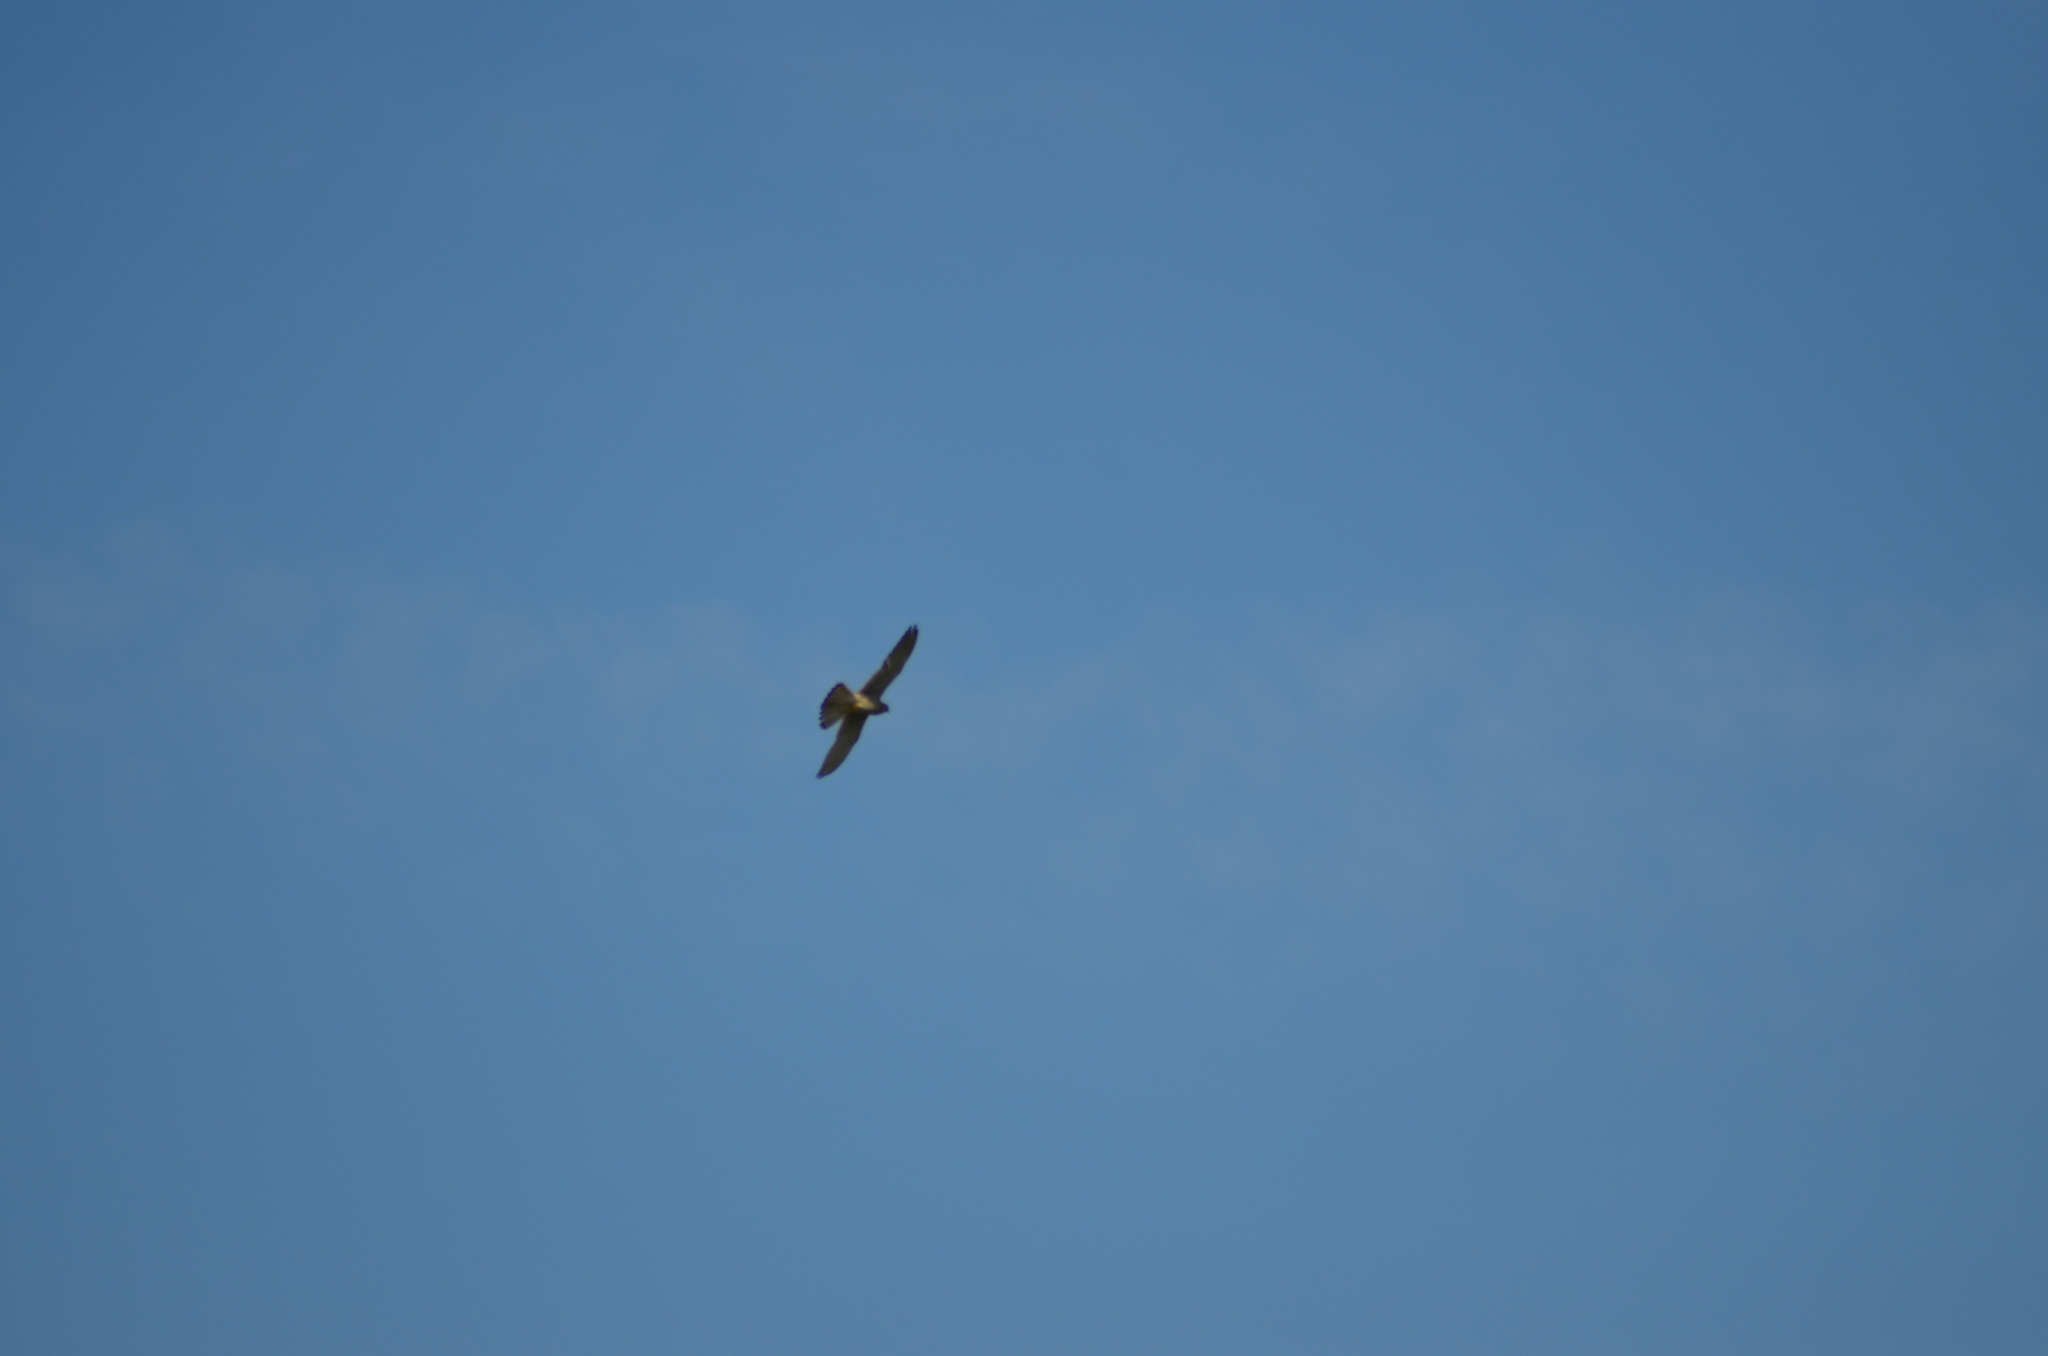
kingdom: Animalia
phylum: Chordata
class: Aves
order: Falconiformes
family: Falconidae
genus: Falco
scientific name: Falco tinnunculus
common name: Common kestrel
